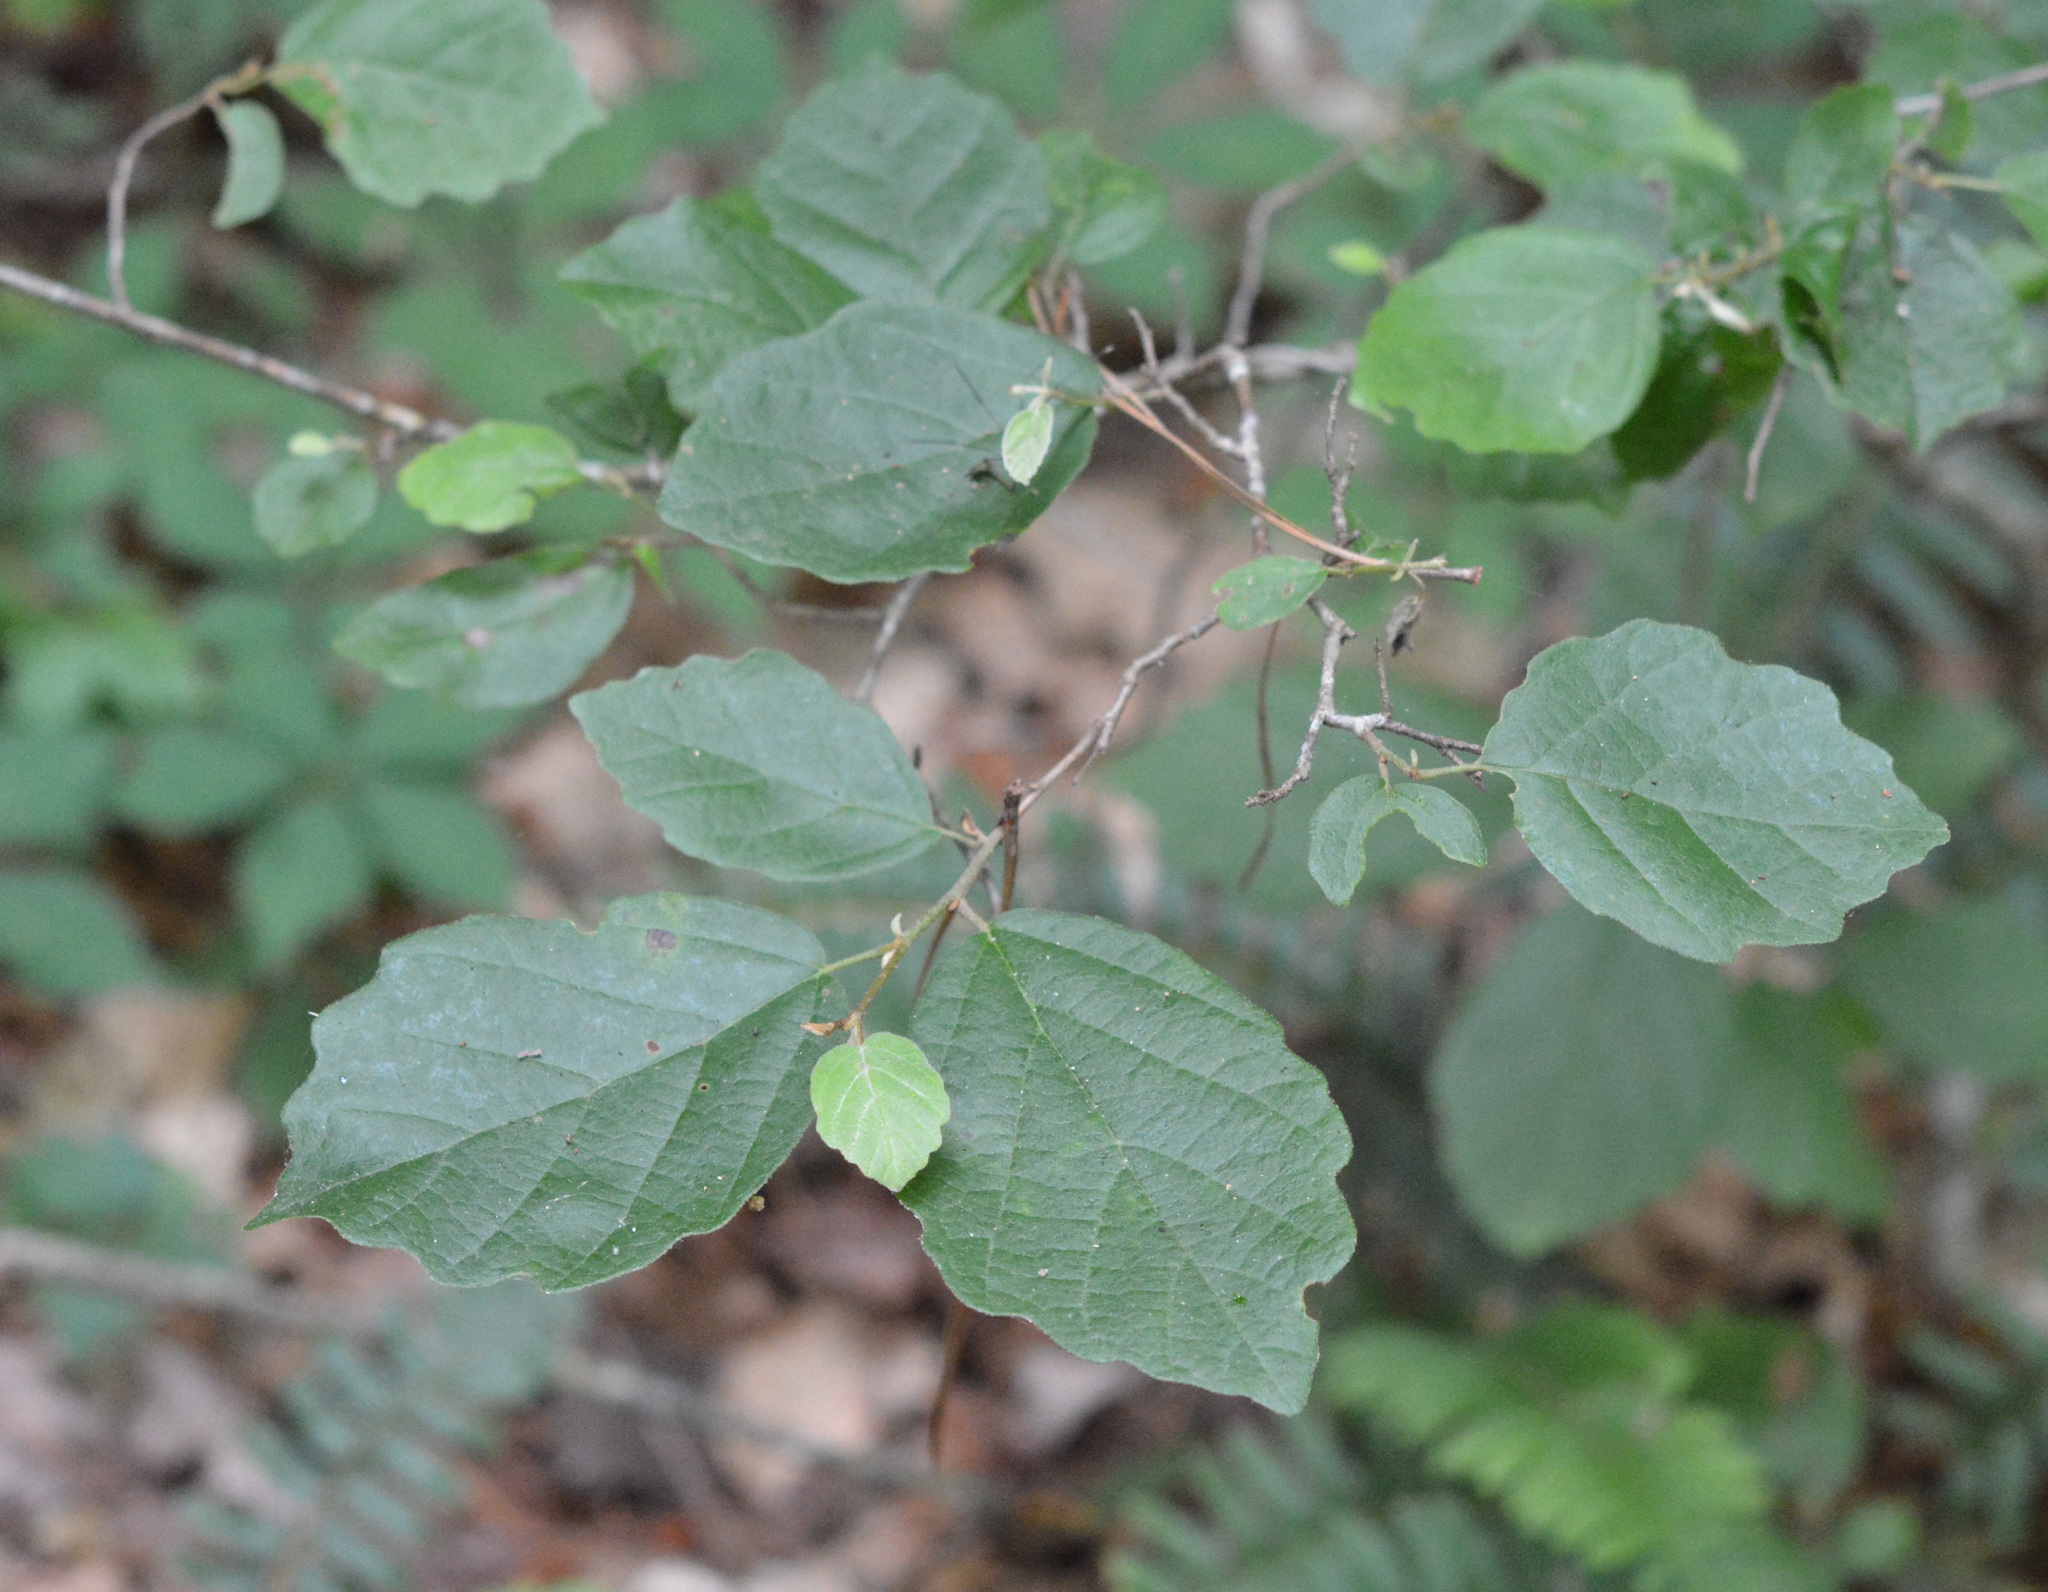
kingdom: Plantae
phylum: Tracheophyta
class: Magnoliopsida
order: Saxifragales
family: Hamamelidaceae
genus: Hamamelis
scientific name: Hamamelis virginiana
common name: Witch-hazel
